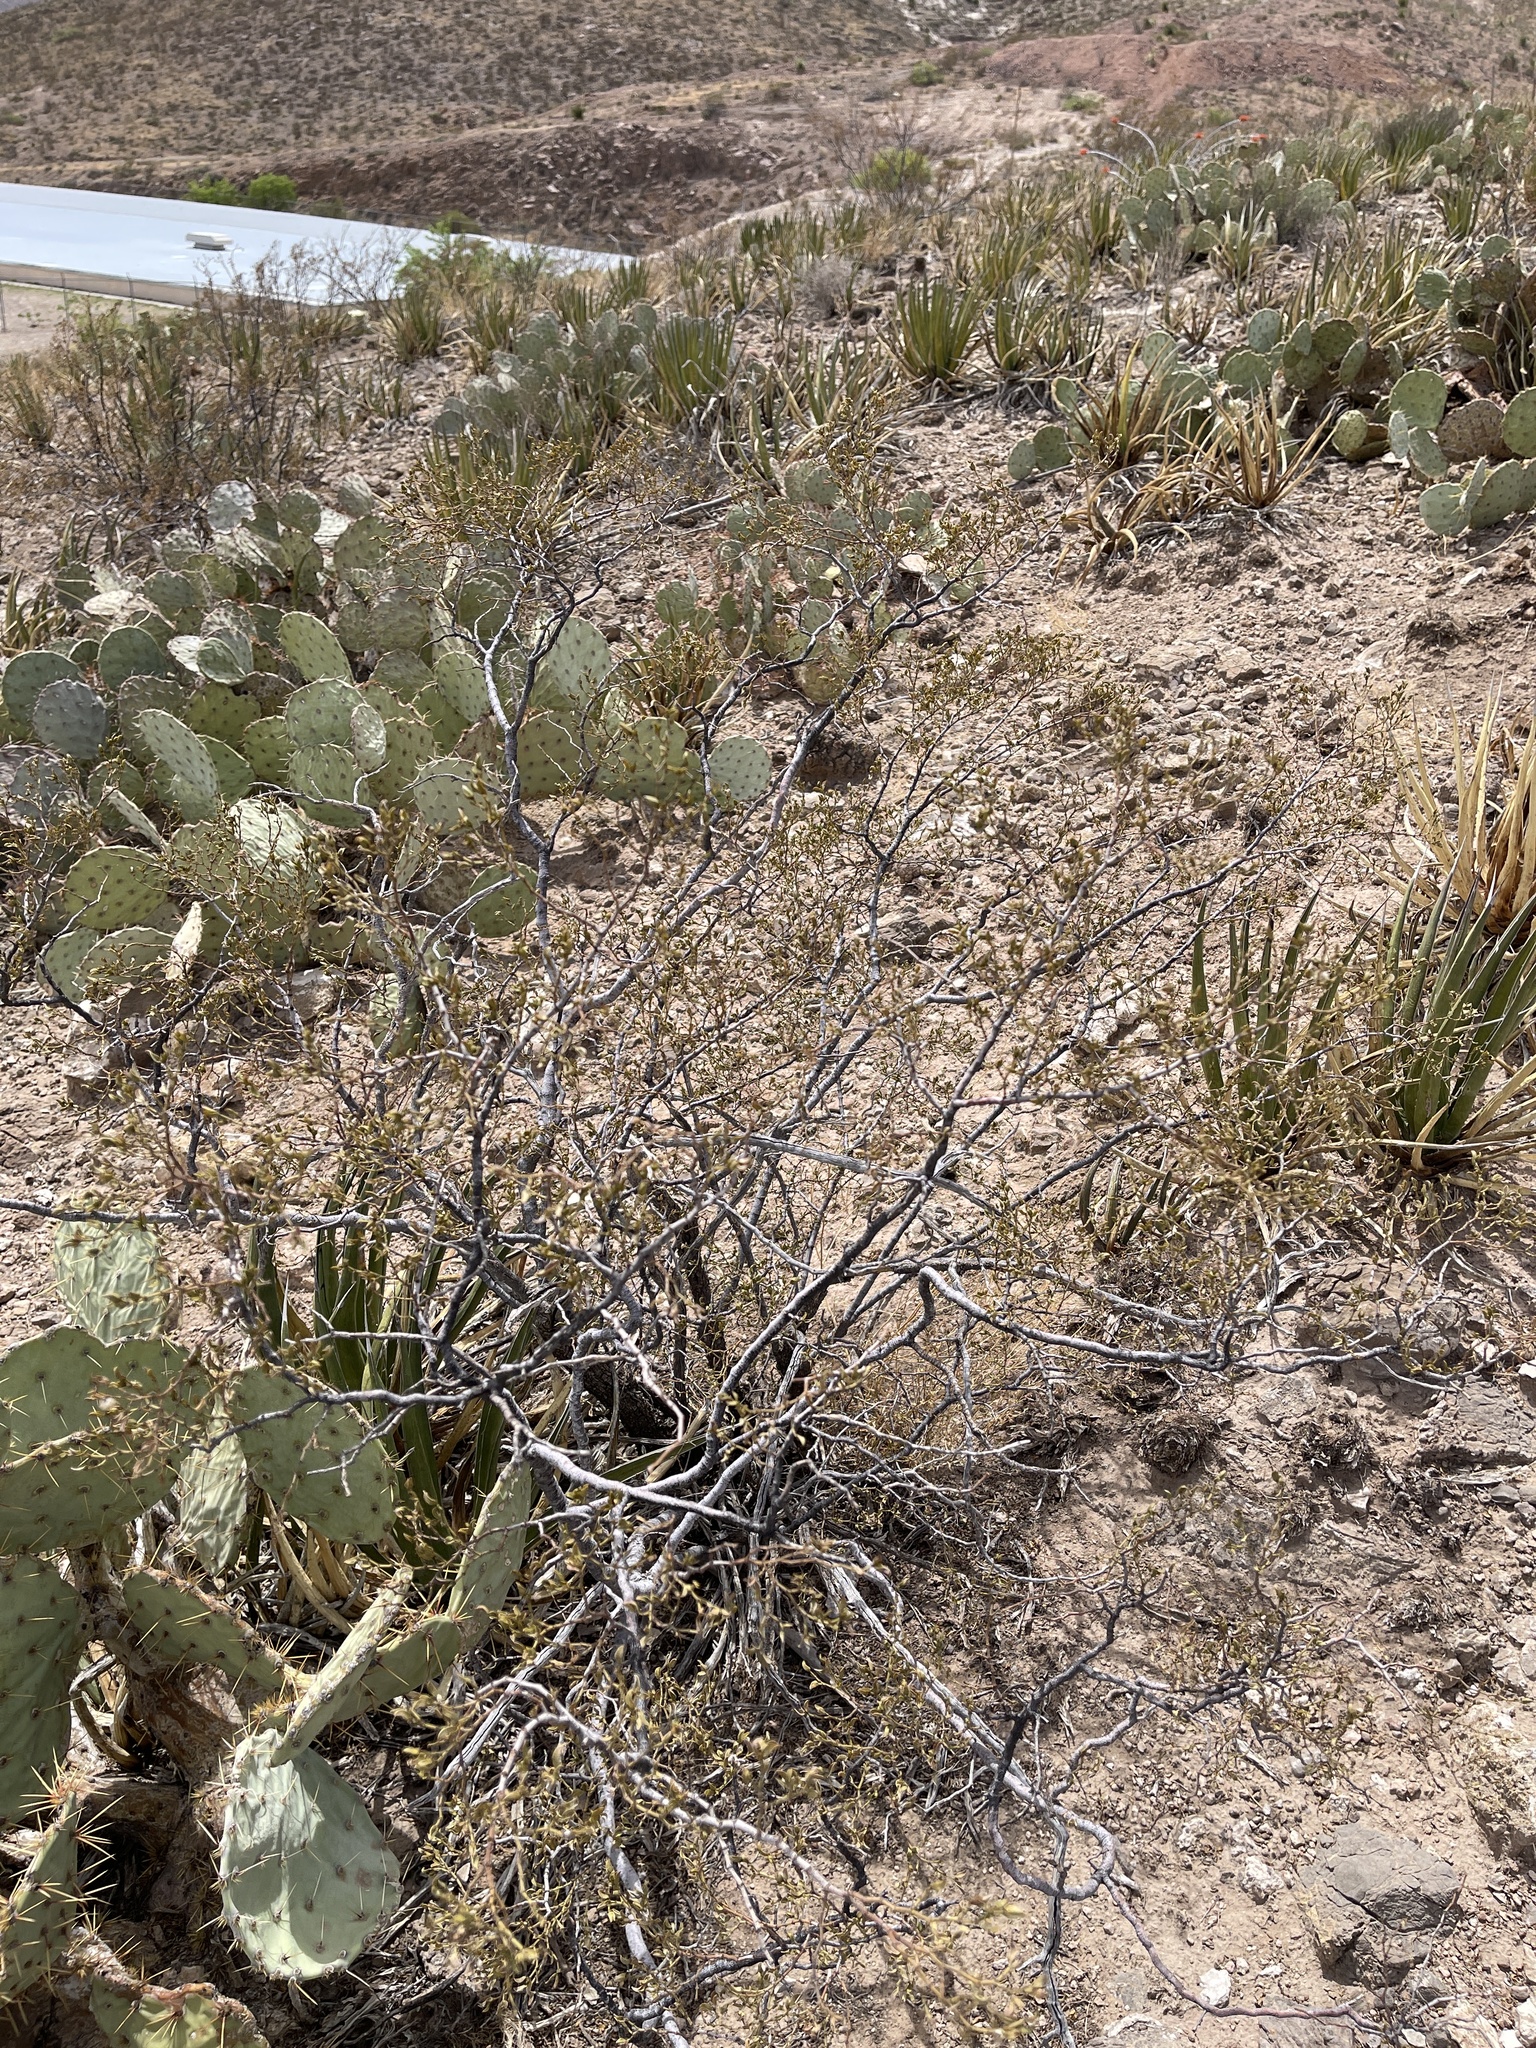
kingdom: Plantae
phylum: Tracheophyta
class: Magnoliopsida
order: Zygophyllales
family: Zygophyllaceae
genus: Larrea
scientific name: Larrea tridentata
